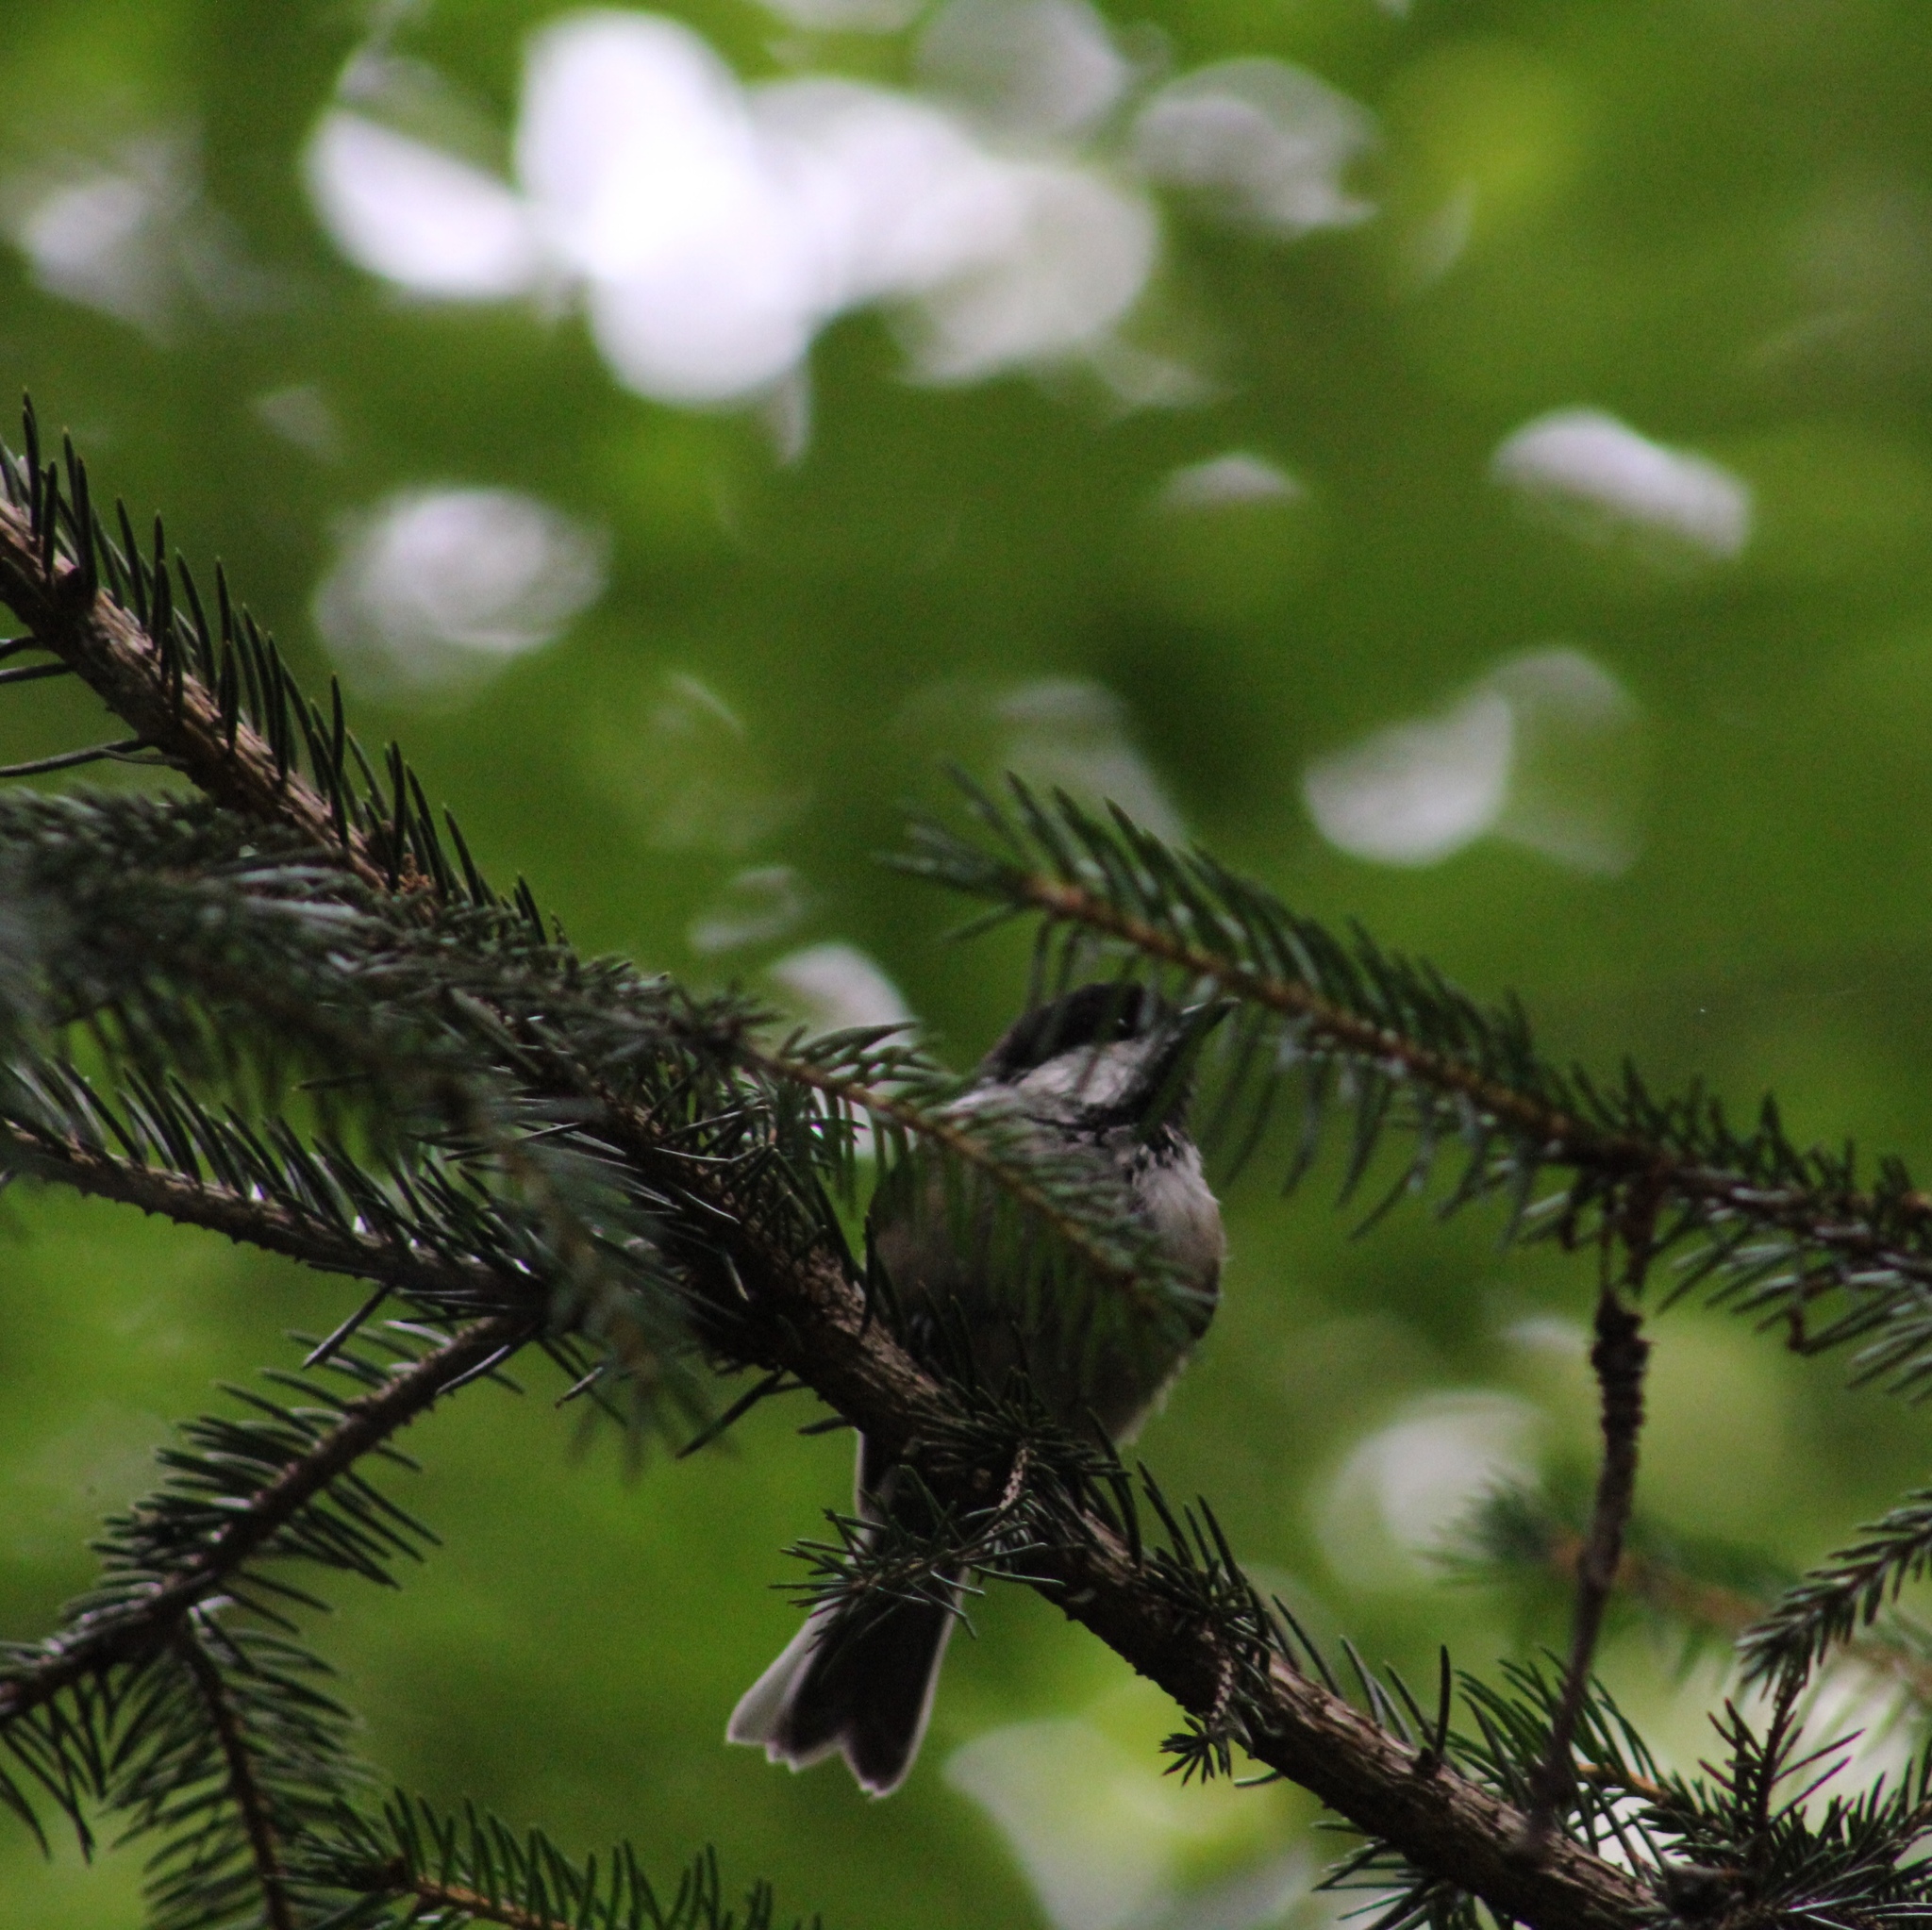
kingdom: Animalia
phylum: Chordata
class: Aves
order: Passeriformes
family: Paridae
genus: Poecile
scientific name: Poecile atricapillus
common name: Black-capped chickadee
